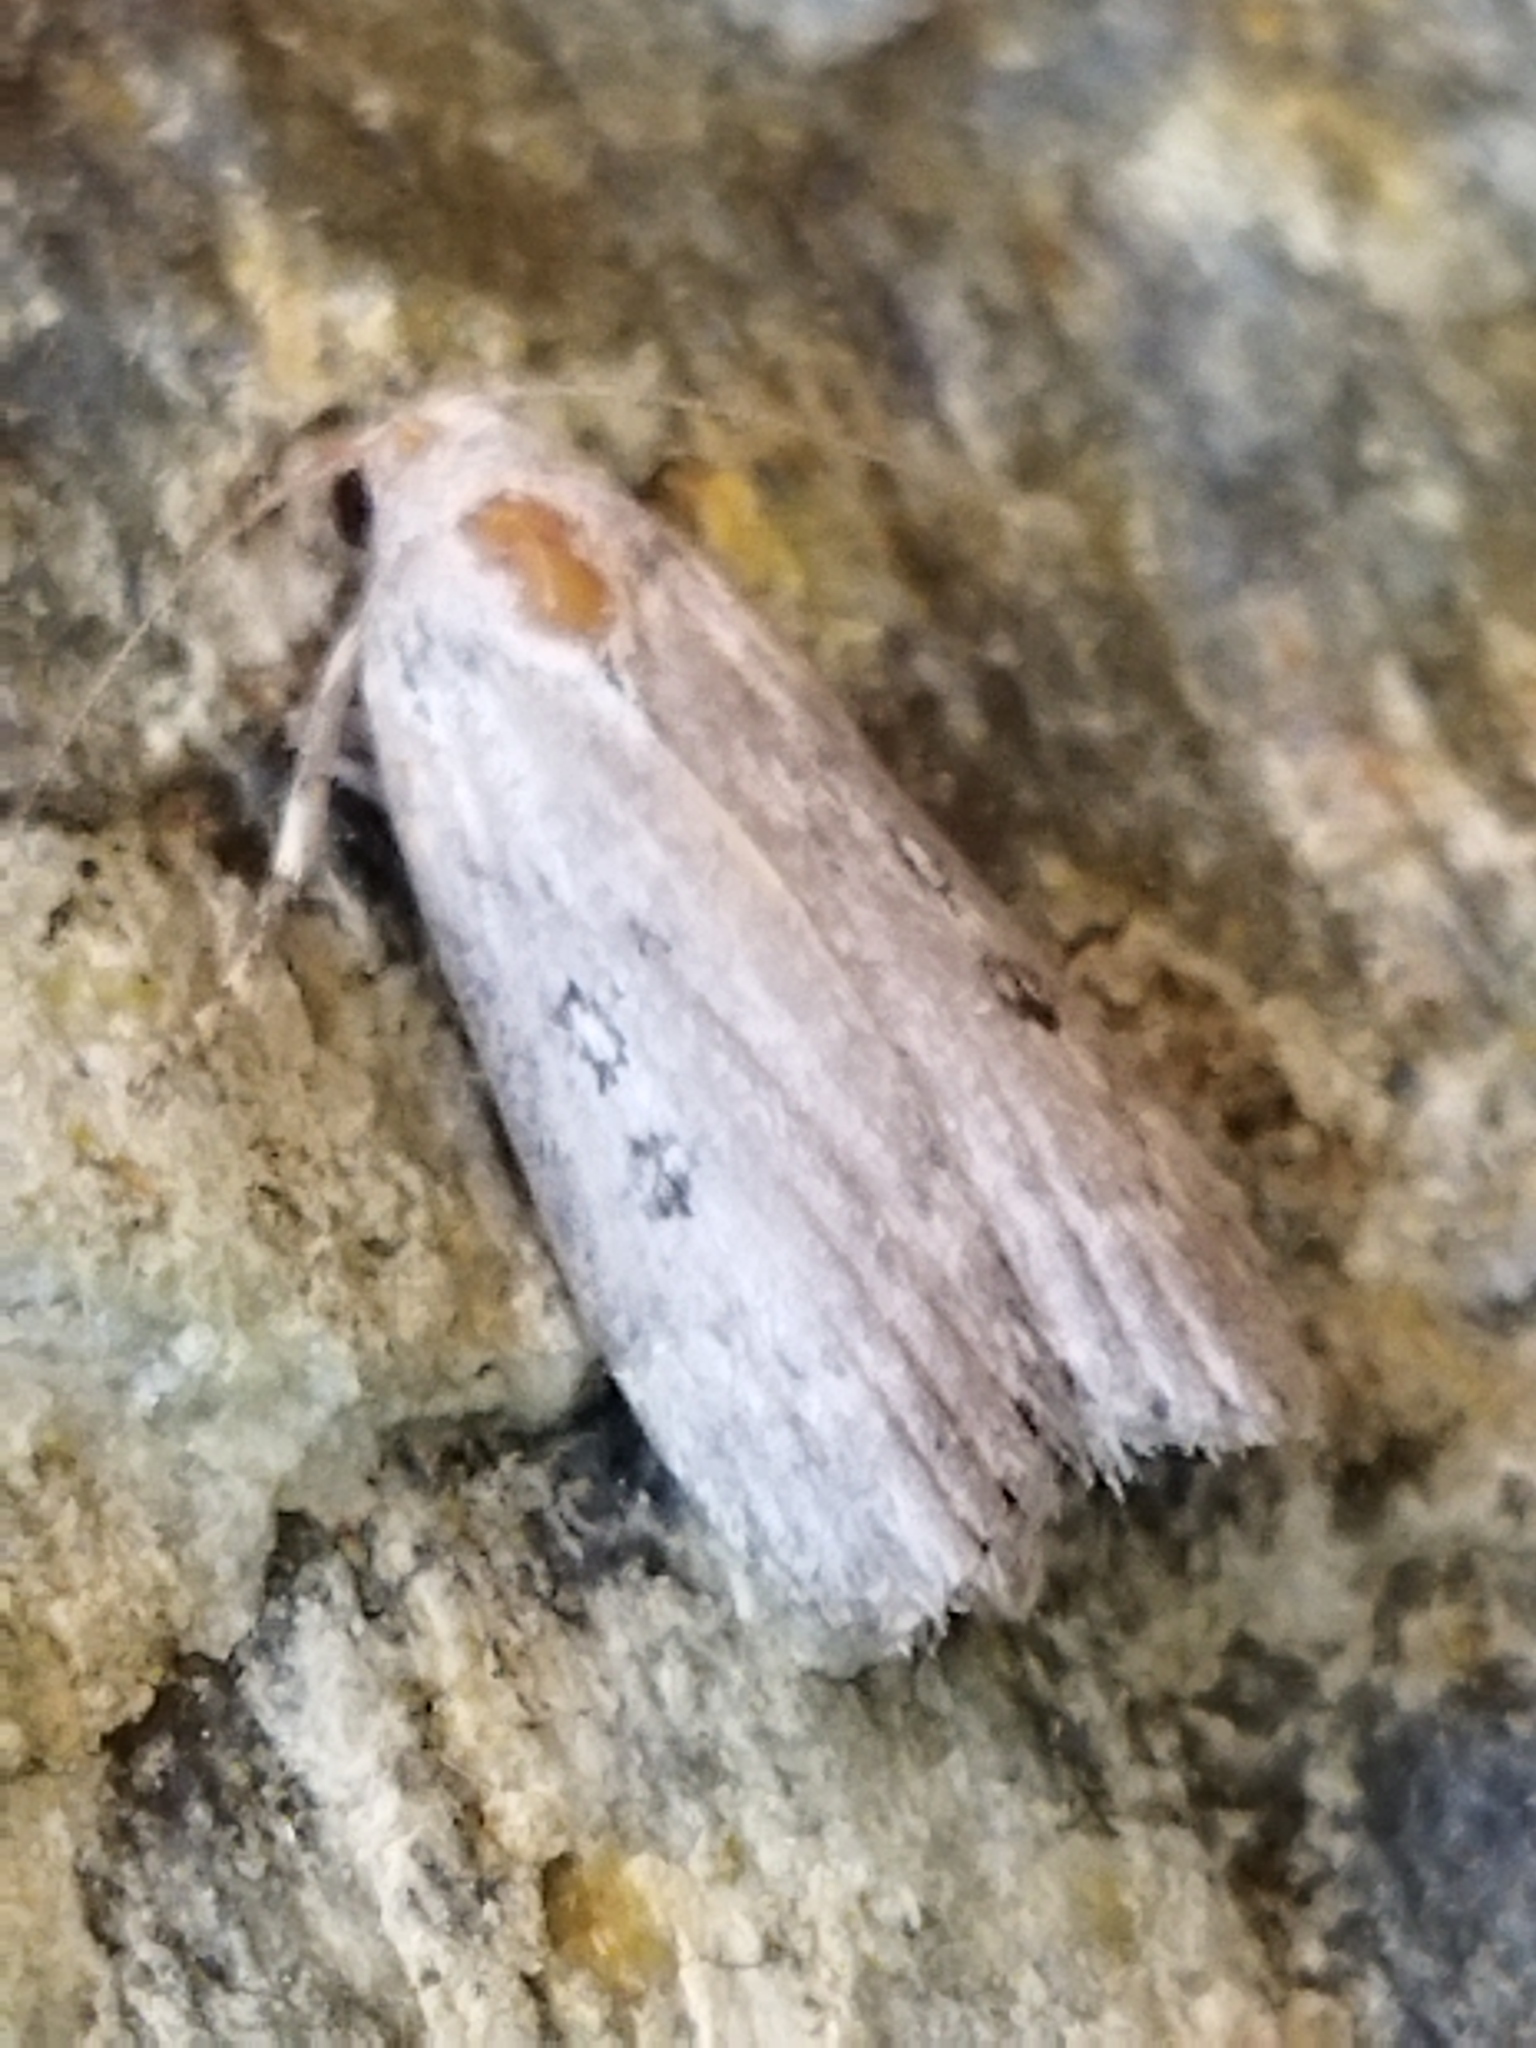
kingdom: Animalia
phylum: Arthropoda
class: Insecta
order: Lepidoptera
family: Pyralidae
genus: Lamoria
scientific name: Lamoria anella
